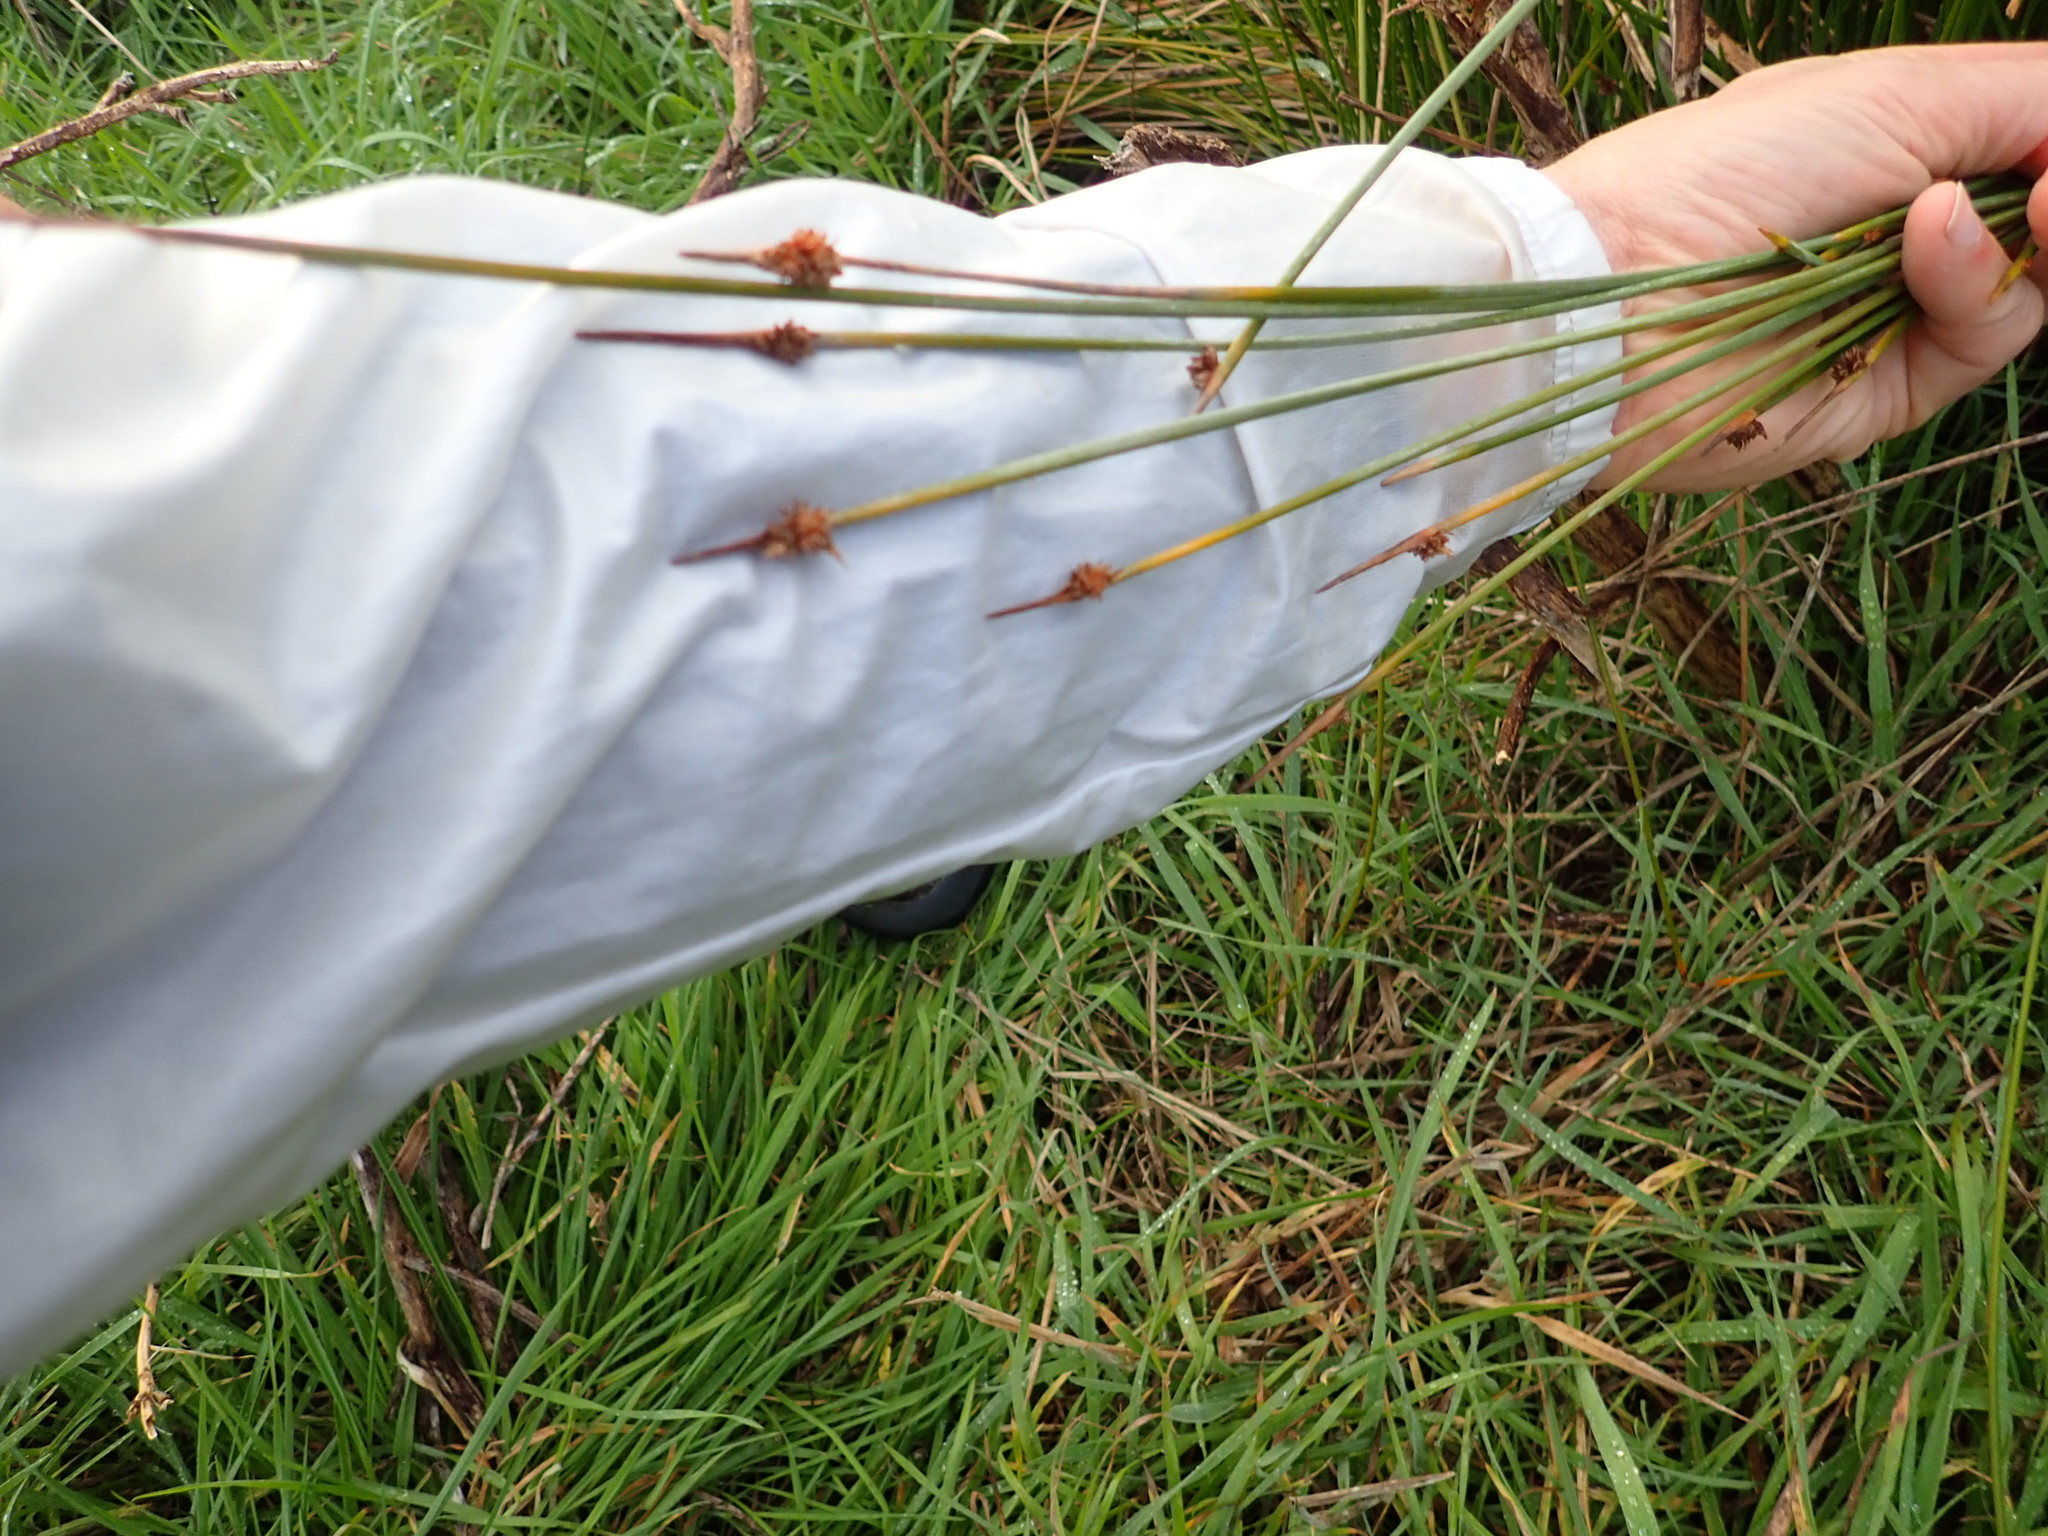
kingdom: Plantae
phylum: Tracheophyta
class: Liliopsida
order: Poales
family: Cyperaceae
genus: Ficinia
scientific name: Ficinia nodosa
